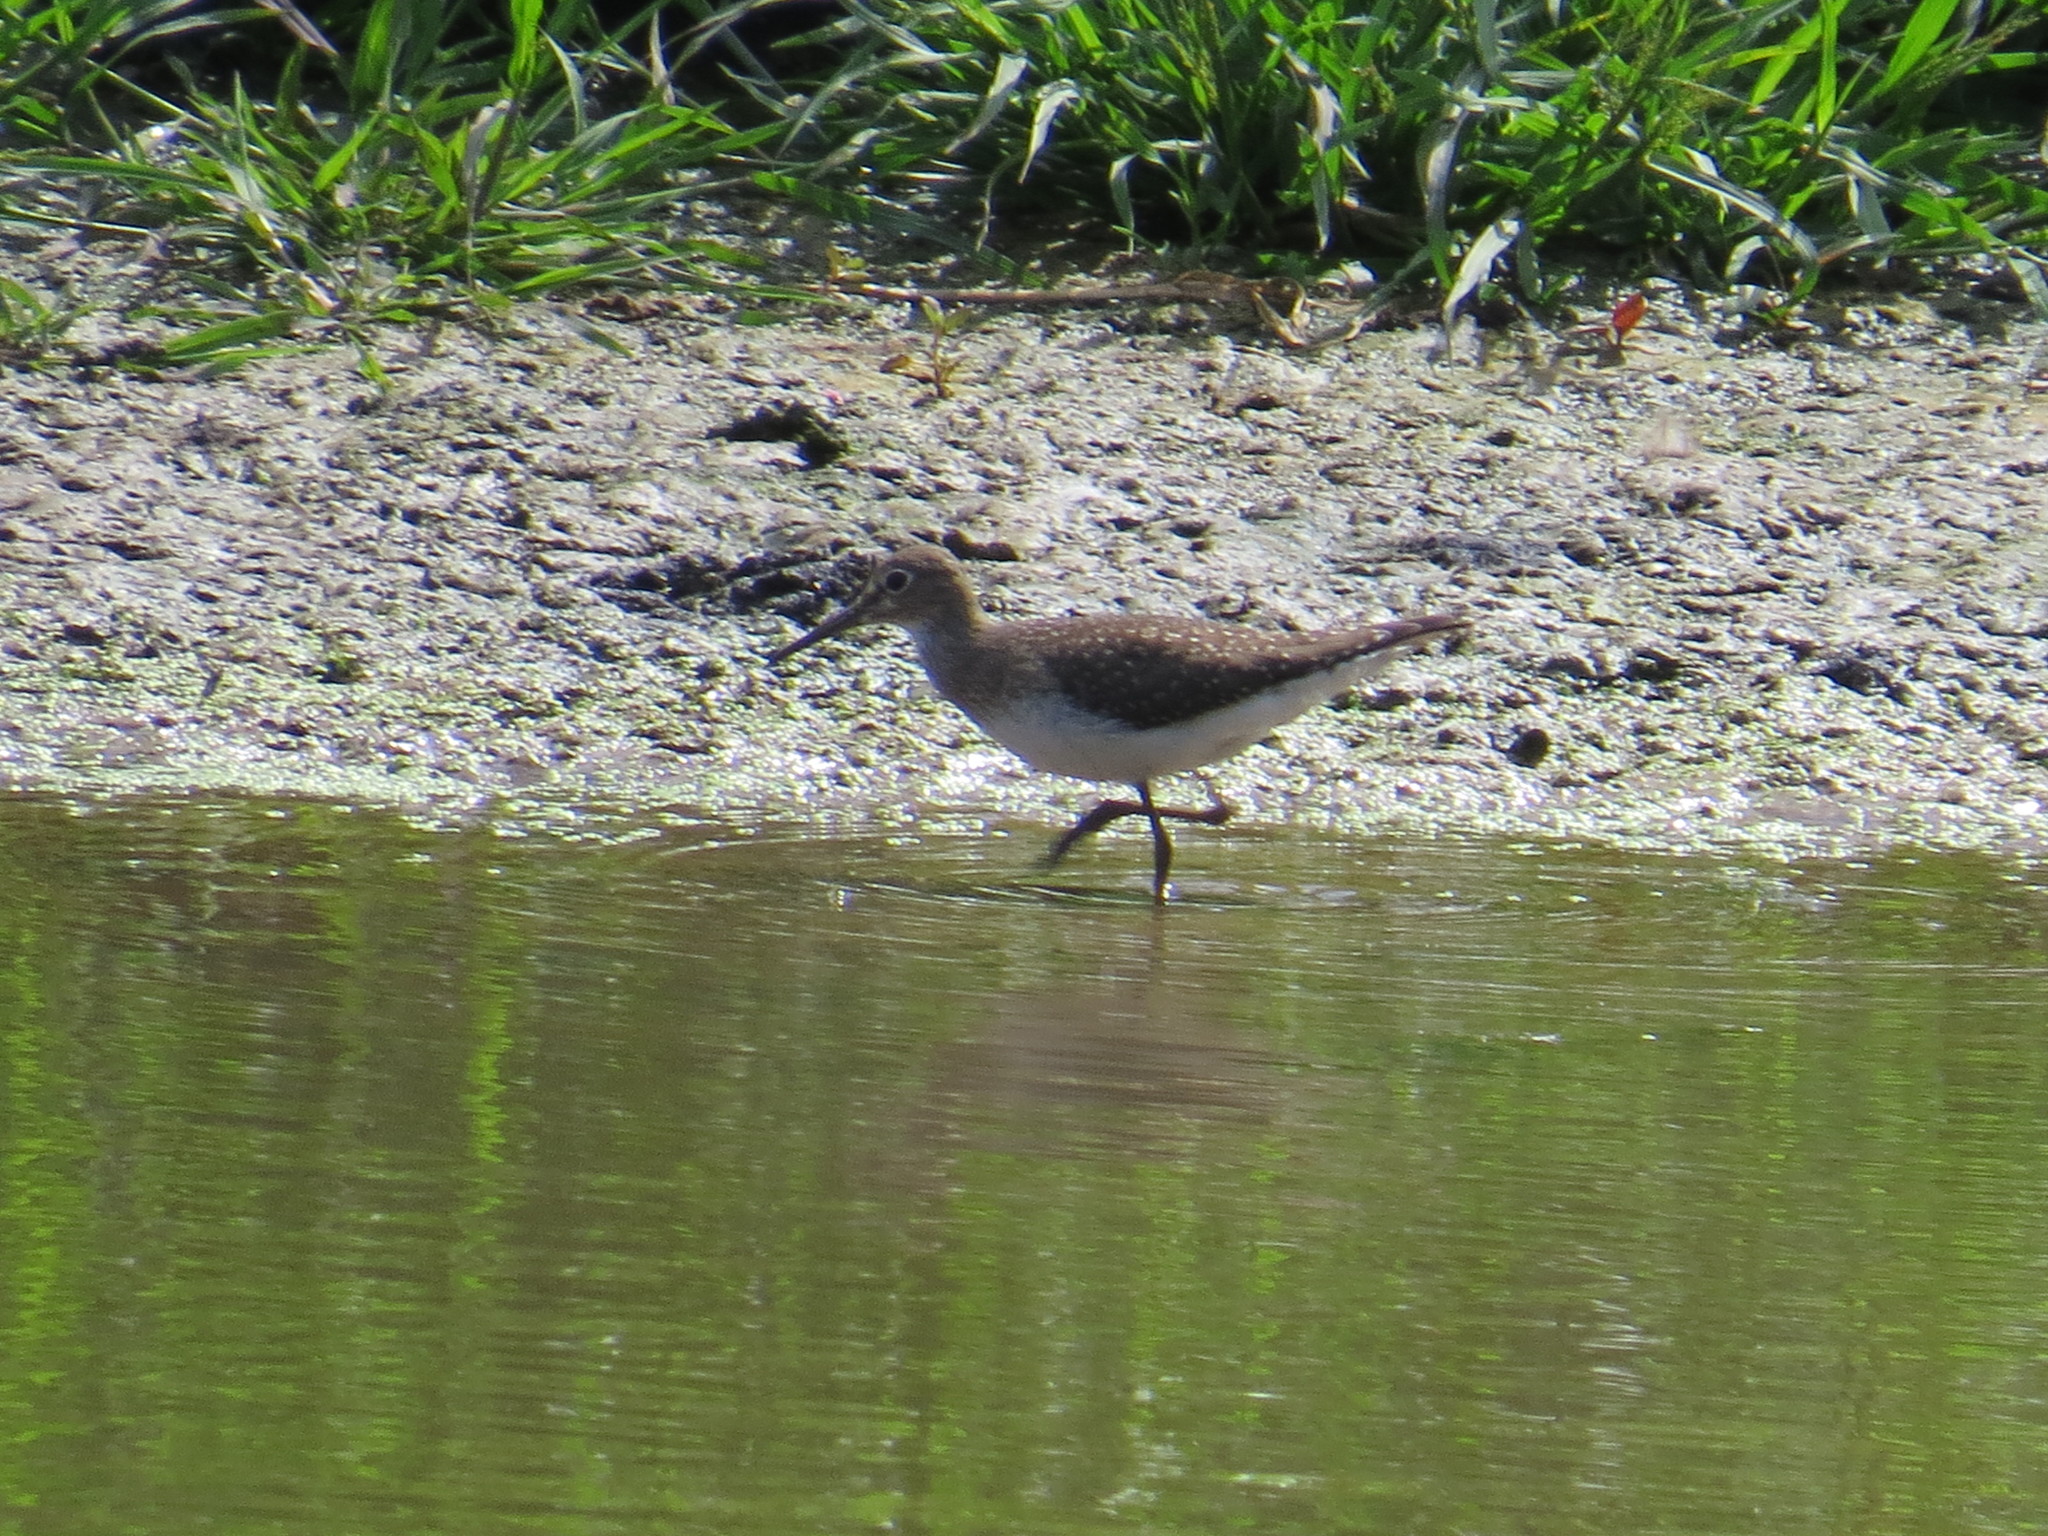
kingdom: Animalia
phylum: Chordata
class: Aves
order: Charadriiformes
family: Scolopacidae
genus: Tringa
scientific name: Tringa solitaria
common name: Solitary sandpiper
